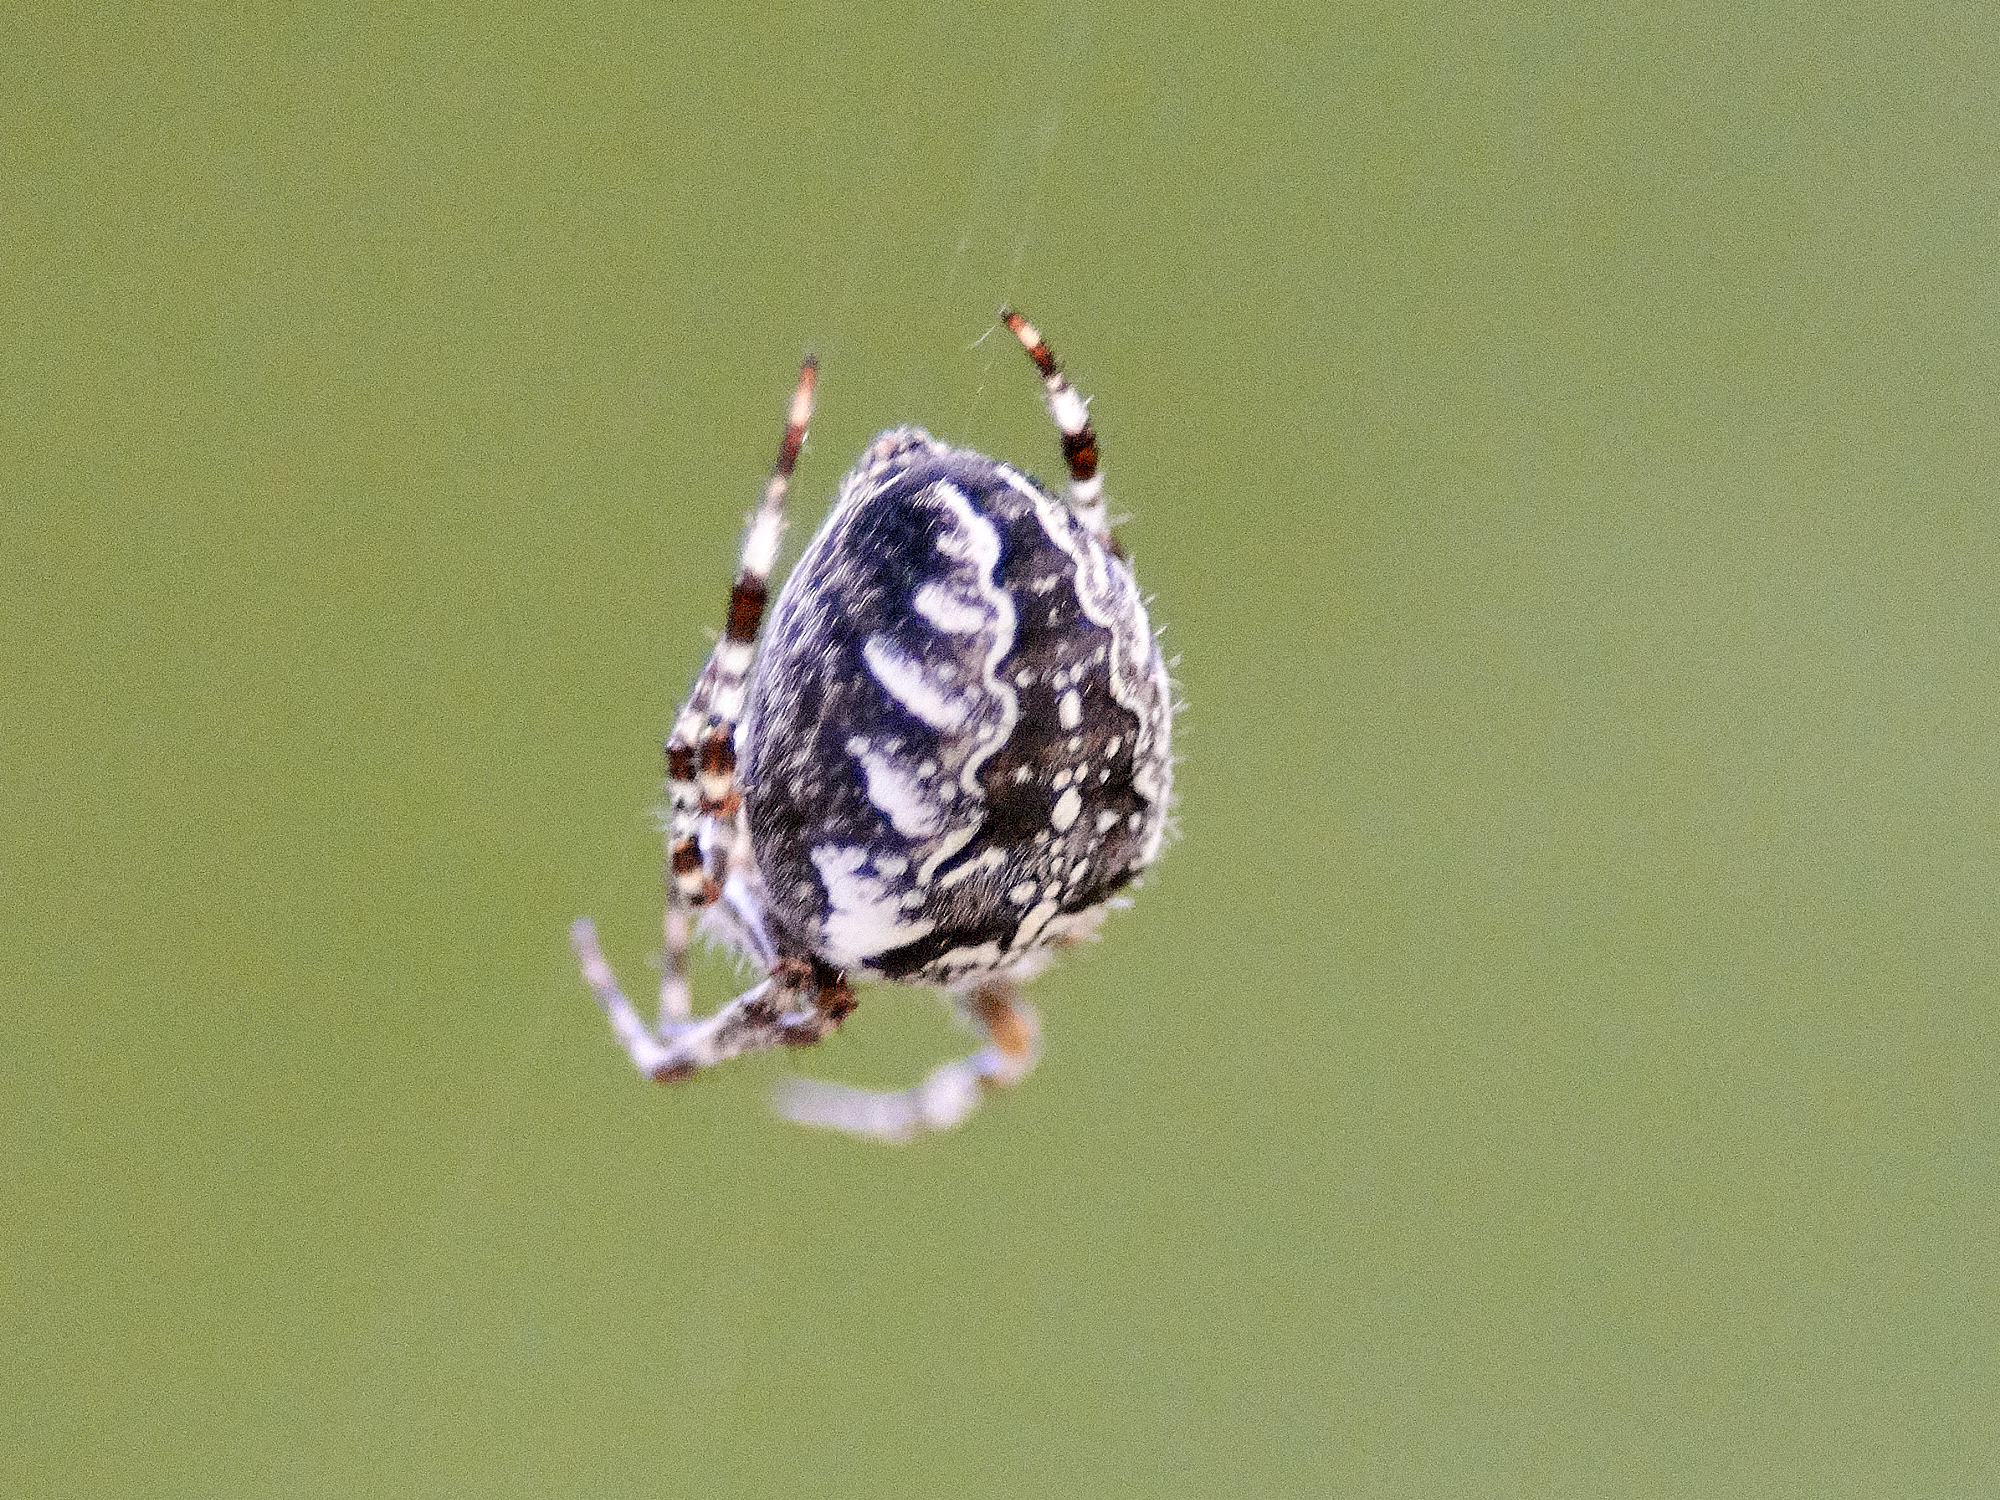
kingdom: Animalia
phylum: Arthropoda
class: Arachnida
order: Araneae
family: Araneidae
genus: Araneus
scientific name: Araneus diadematus
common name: Cross orbweaver
